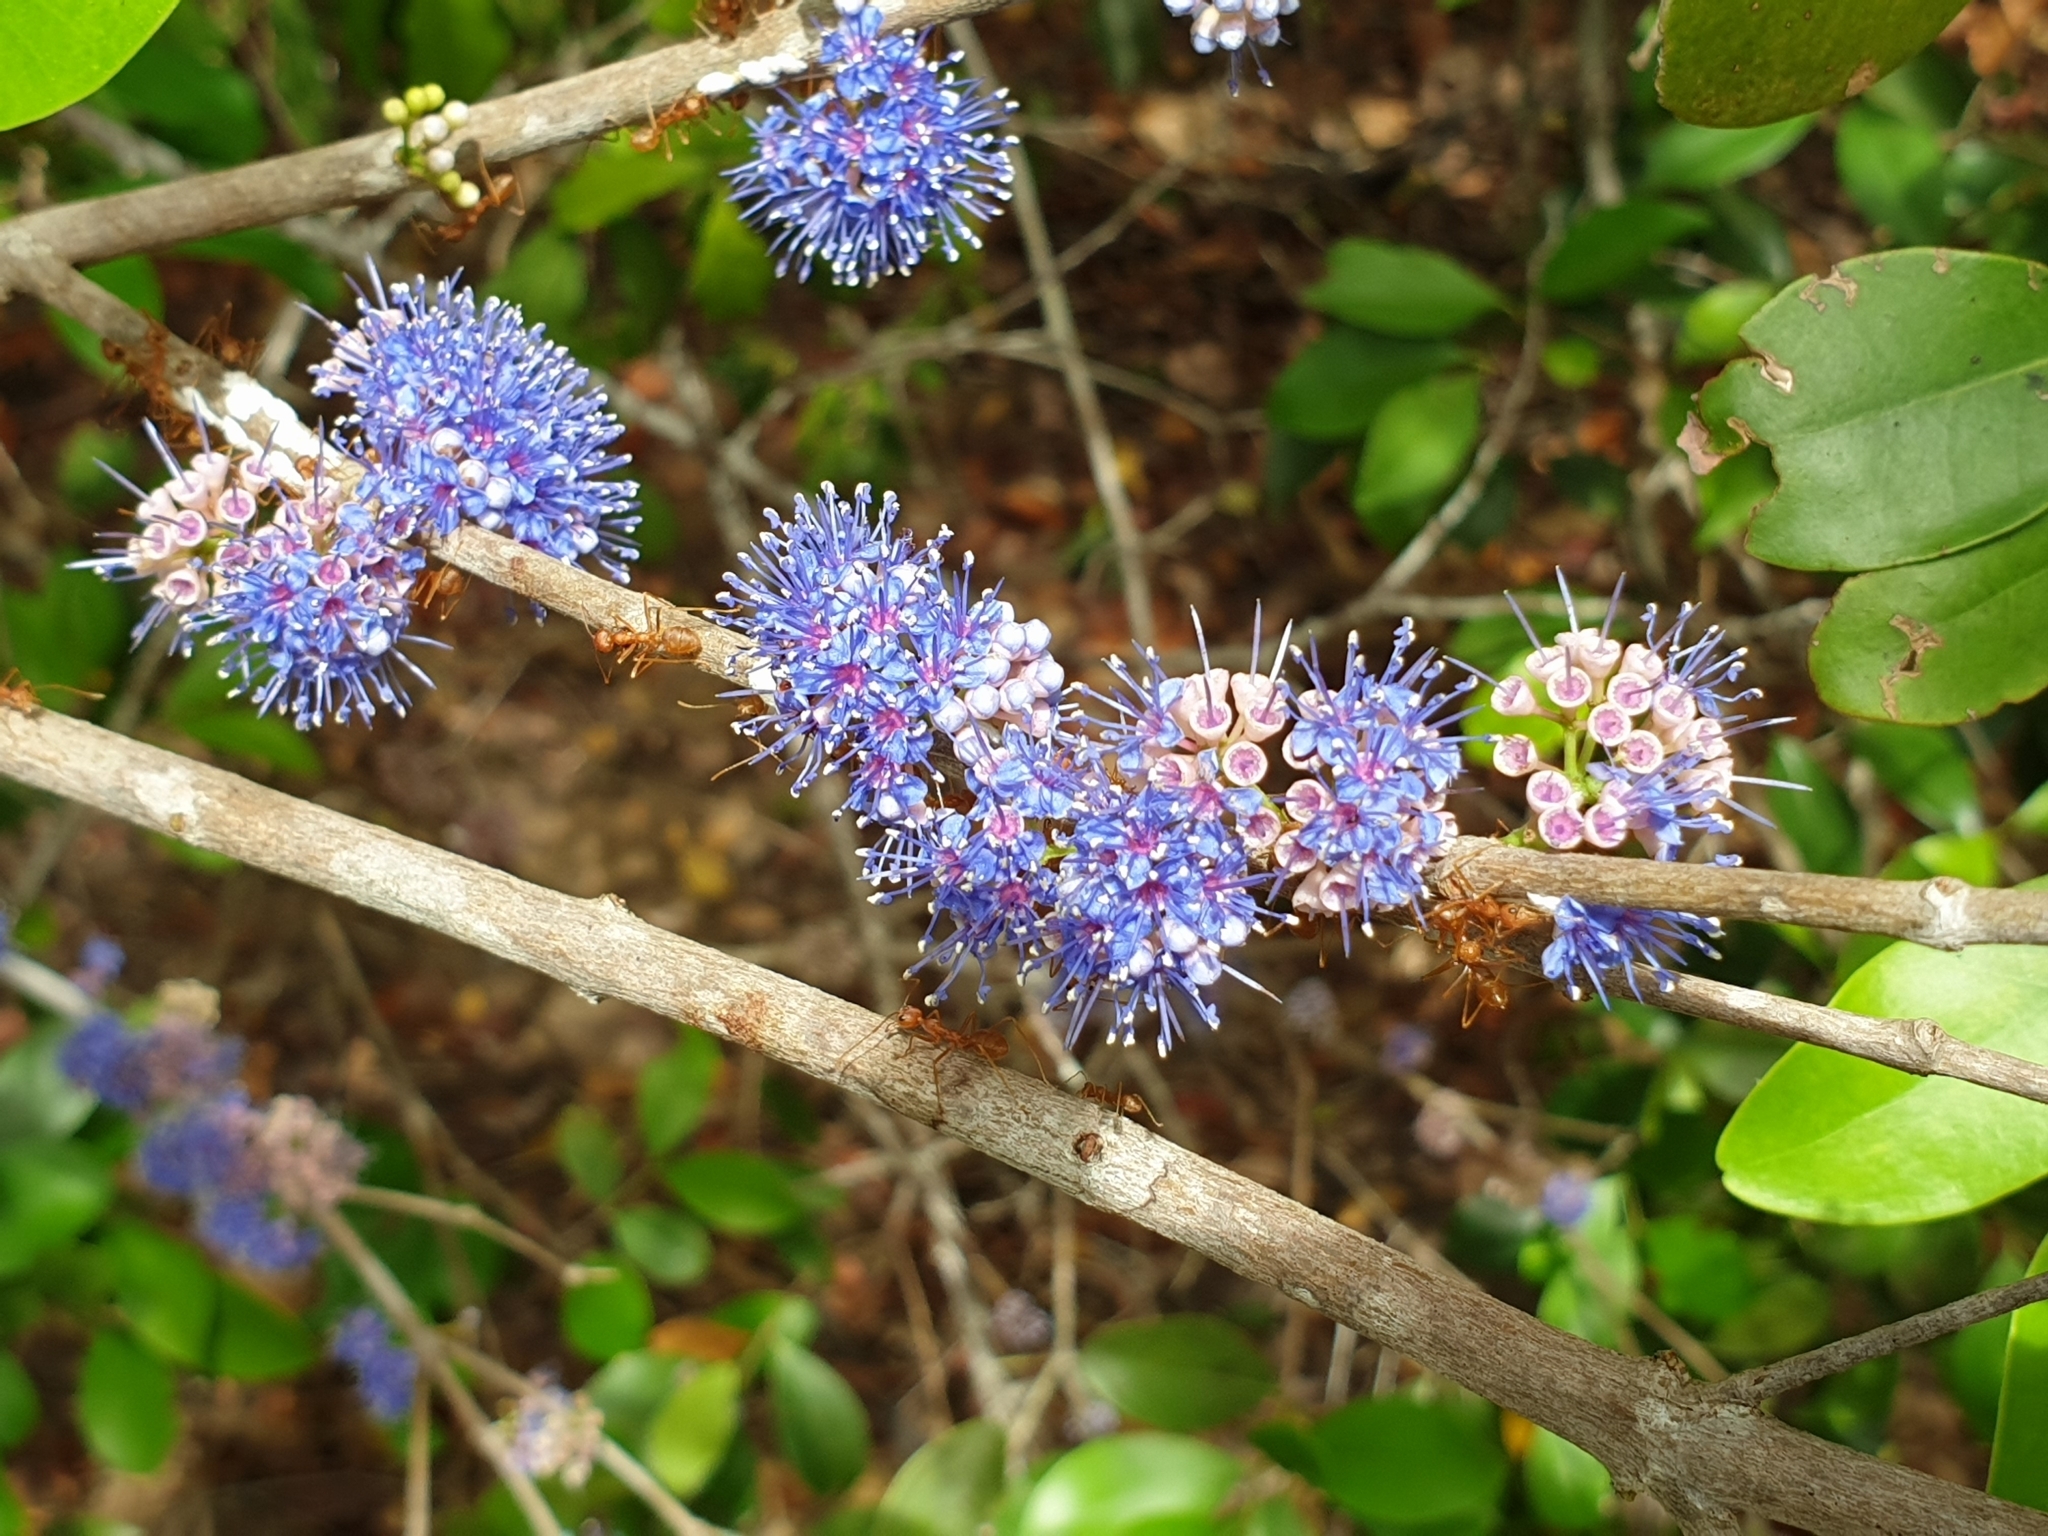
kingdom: Plantae
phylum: Tracheophyta
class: Magnoliopsida
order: Myrtales
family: Melastomataceae
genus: Memecylon
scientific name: Memecylon umbellatum
